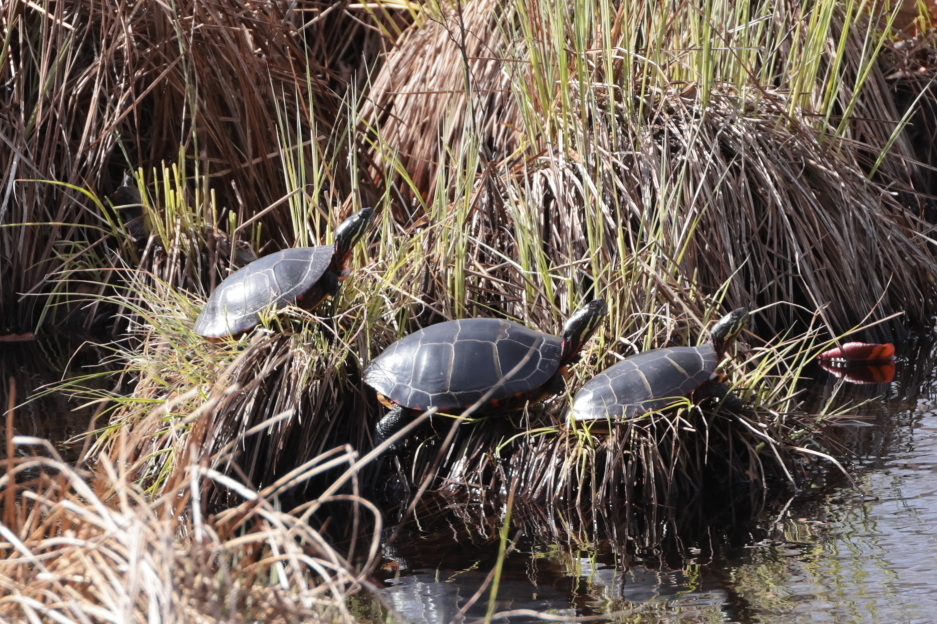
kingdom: Animalia
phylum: Chordata
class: Testudines
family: Emydidae
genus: Chrysemys
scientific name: Chrysemys picta
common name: Painted turtle
